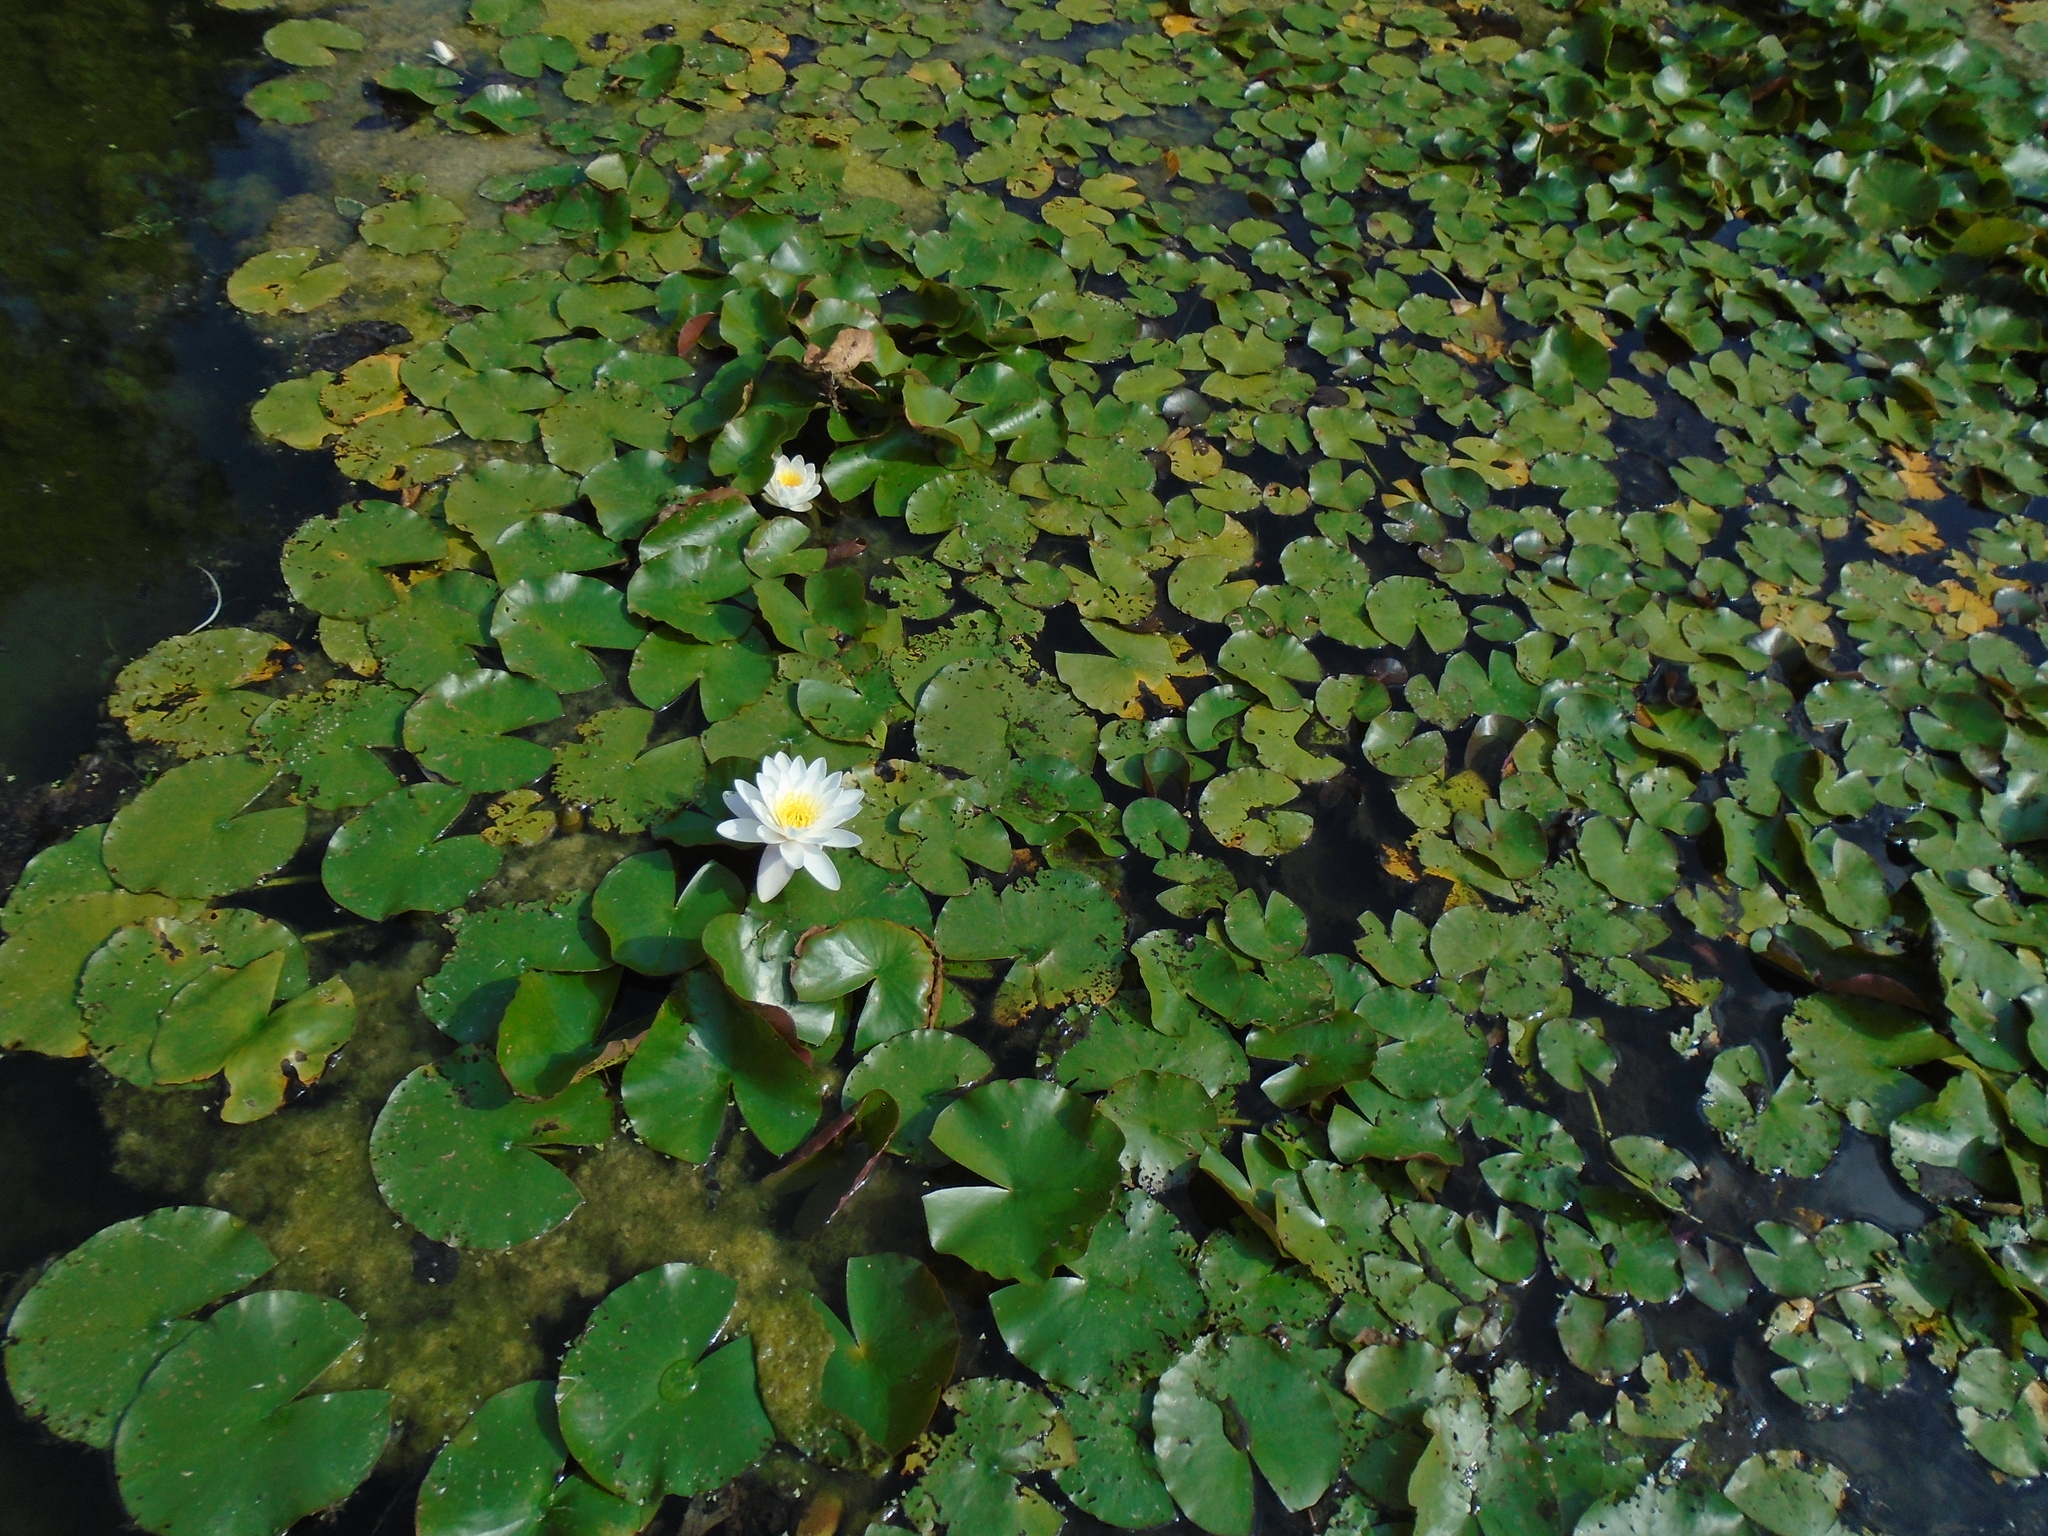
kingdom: Plantae
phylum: Tracheophyta
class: Magnoliopsida
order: Nymphaeales
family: Nymphaeaceae
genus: Nymphaea
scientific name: Nymphaea alba
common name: White water-lily
